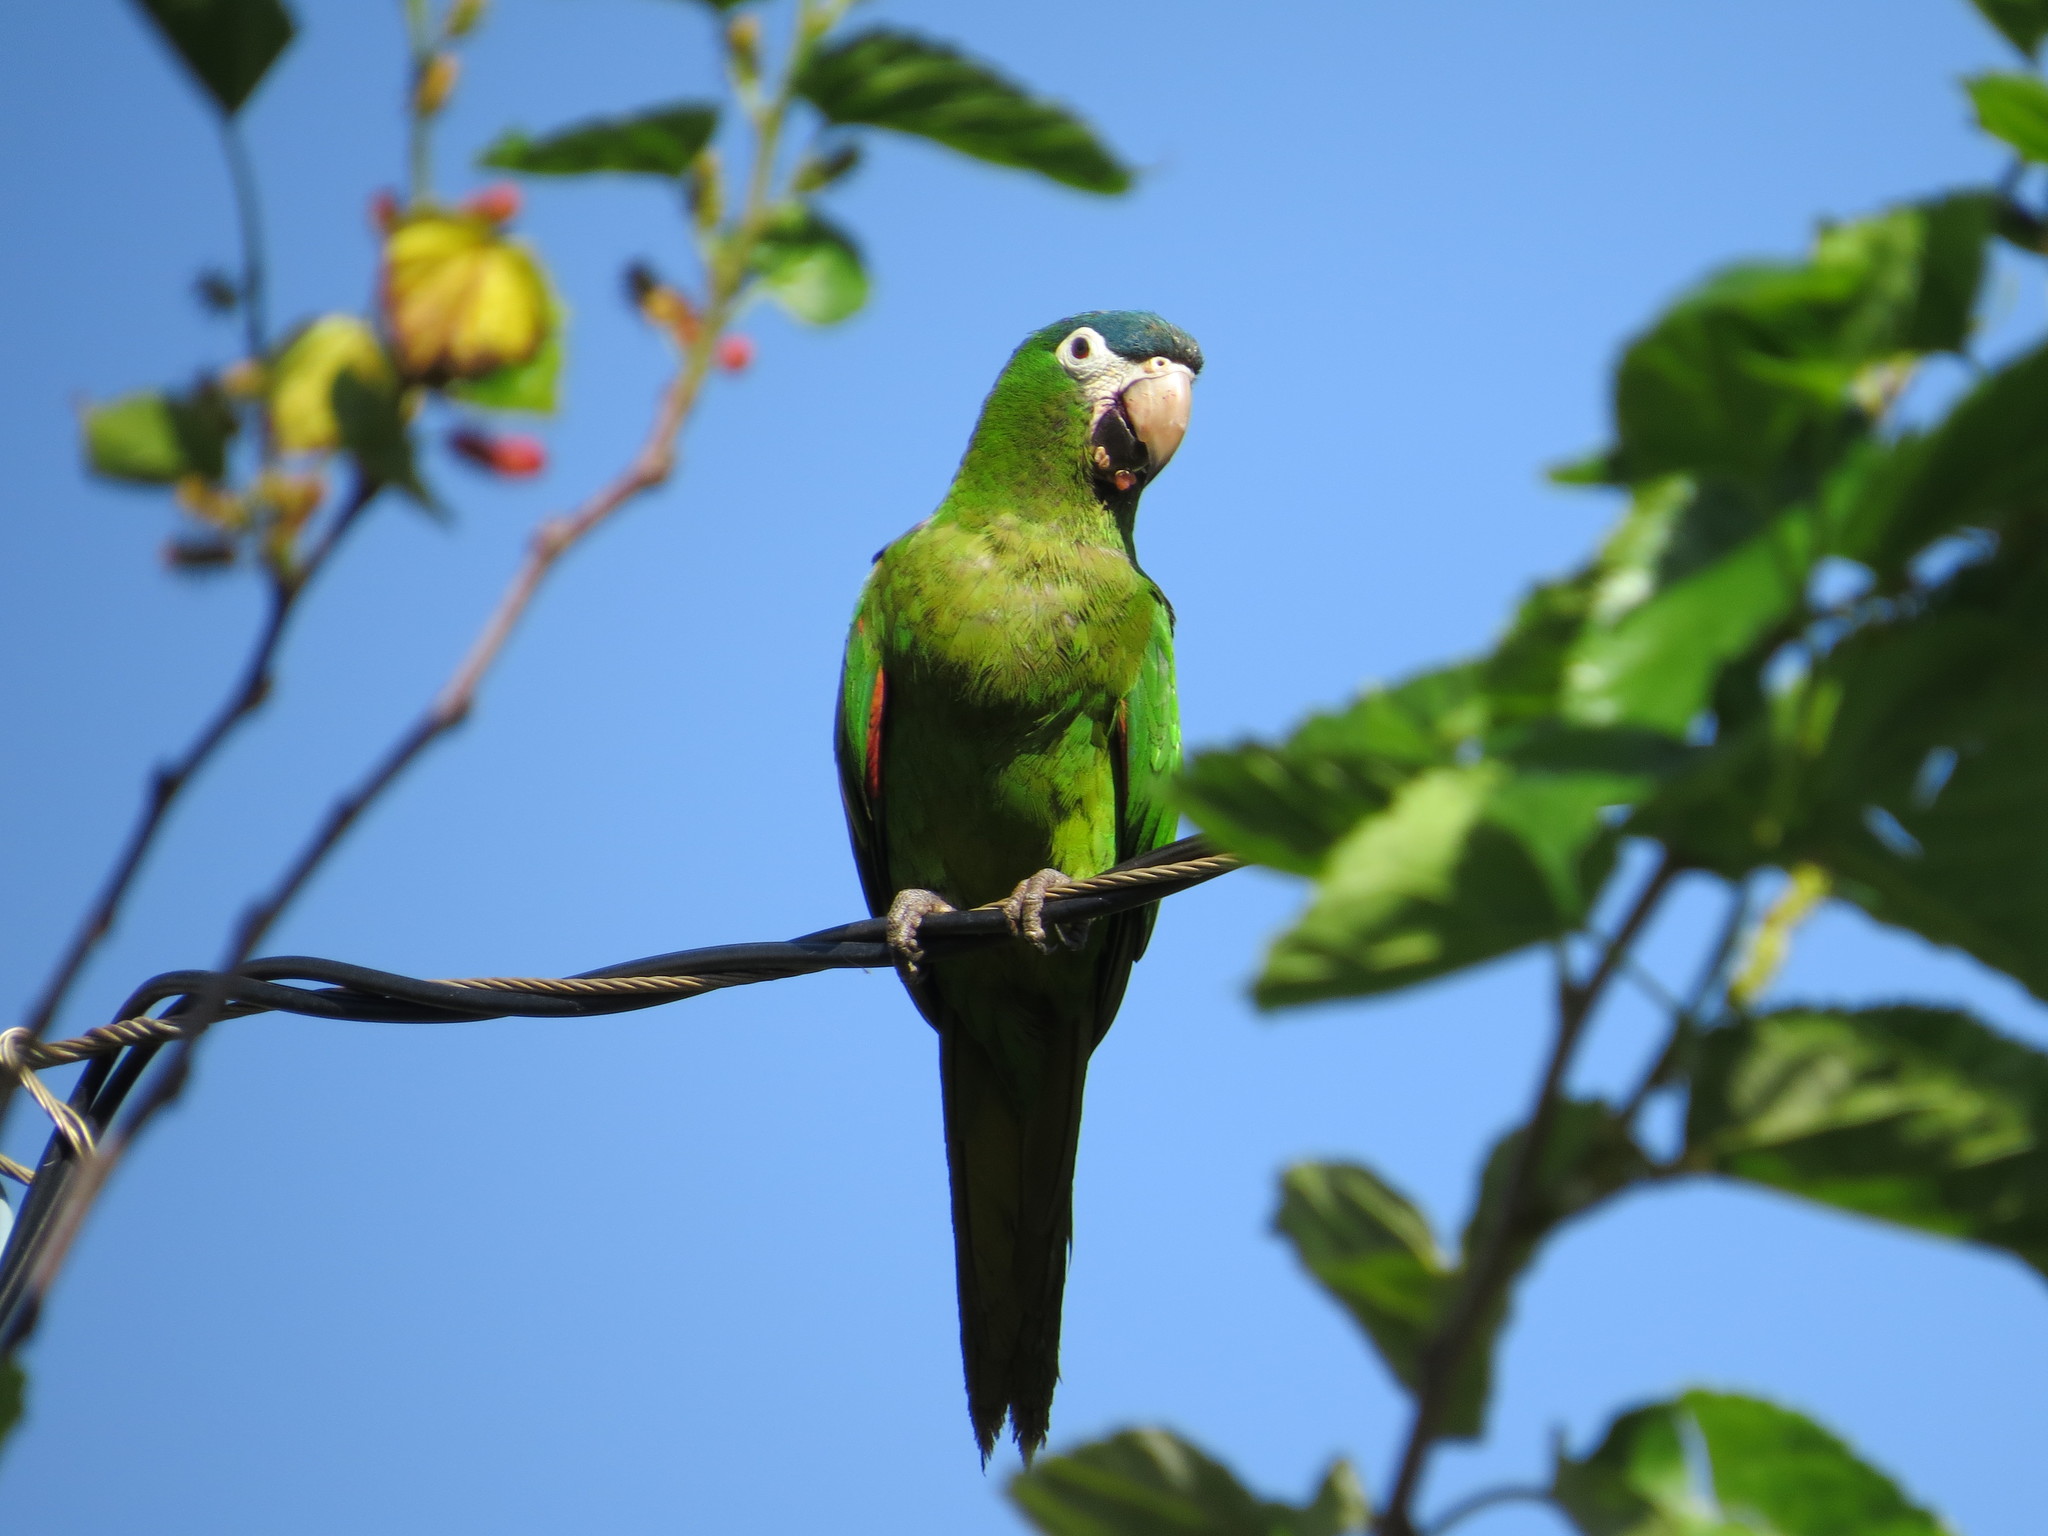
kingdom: Animalia
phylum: Chordata
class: Aves
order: Psittaciformes
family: Psittacidae
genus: Diopsittaca
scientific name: Diopsittaca nobilis
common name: Red-shouldered macaw
